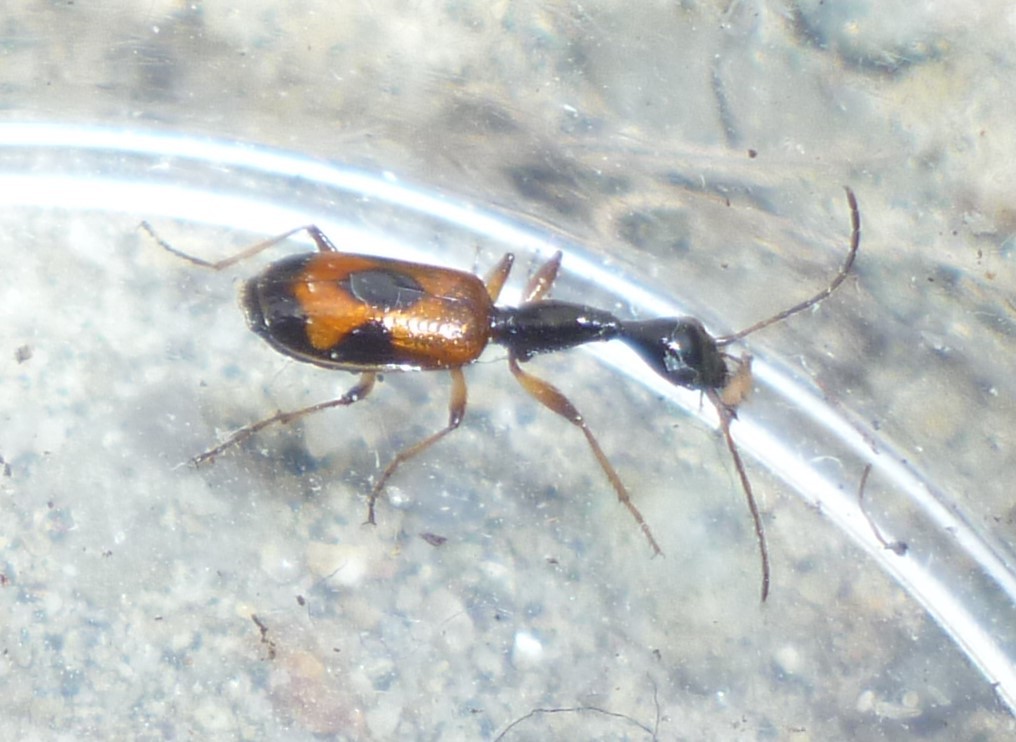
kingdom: Animalia
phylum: Arthropoda
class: Insecta
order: Coleoptera
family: Carabidae
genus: Colliuris
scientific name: Colliuris pensylvanica
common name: Long-necked ground beetle
